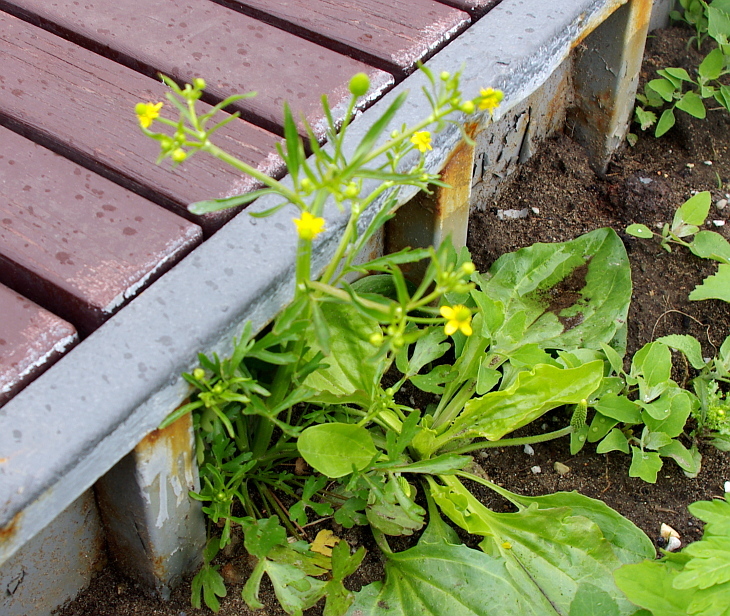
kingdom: Plantae
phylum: Tracheophyta
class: Magnoliopsida
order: Ranunculales
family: Ranunculaceae
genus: Ranunculus
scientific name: Ranunculus sceleratus
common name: Celery-leaved buttercup
